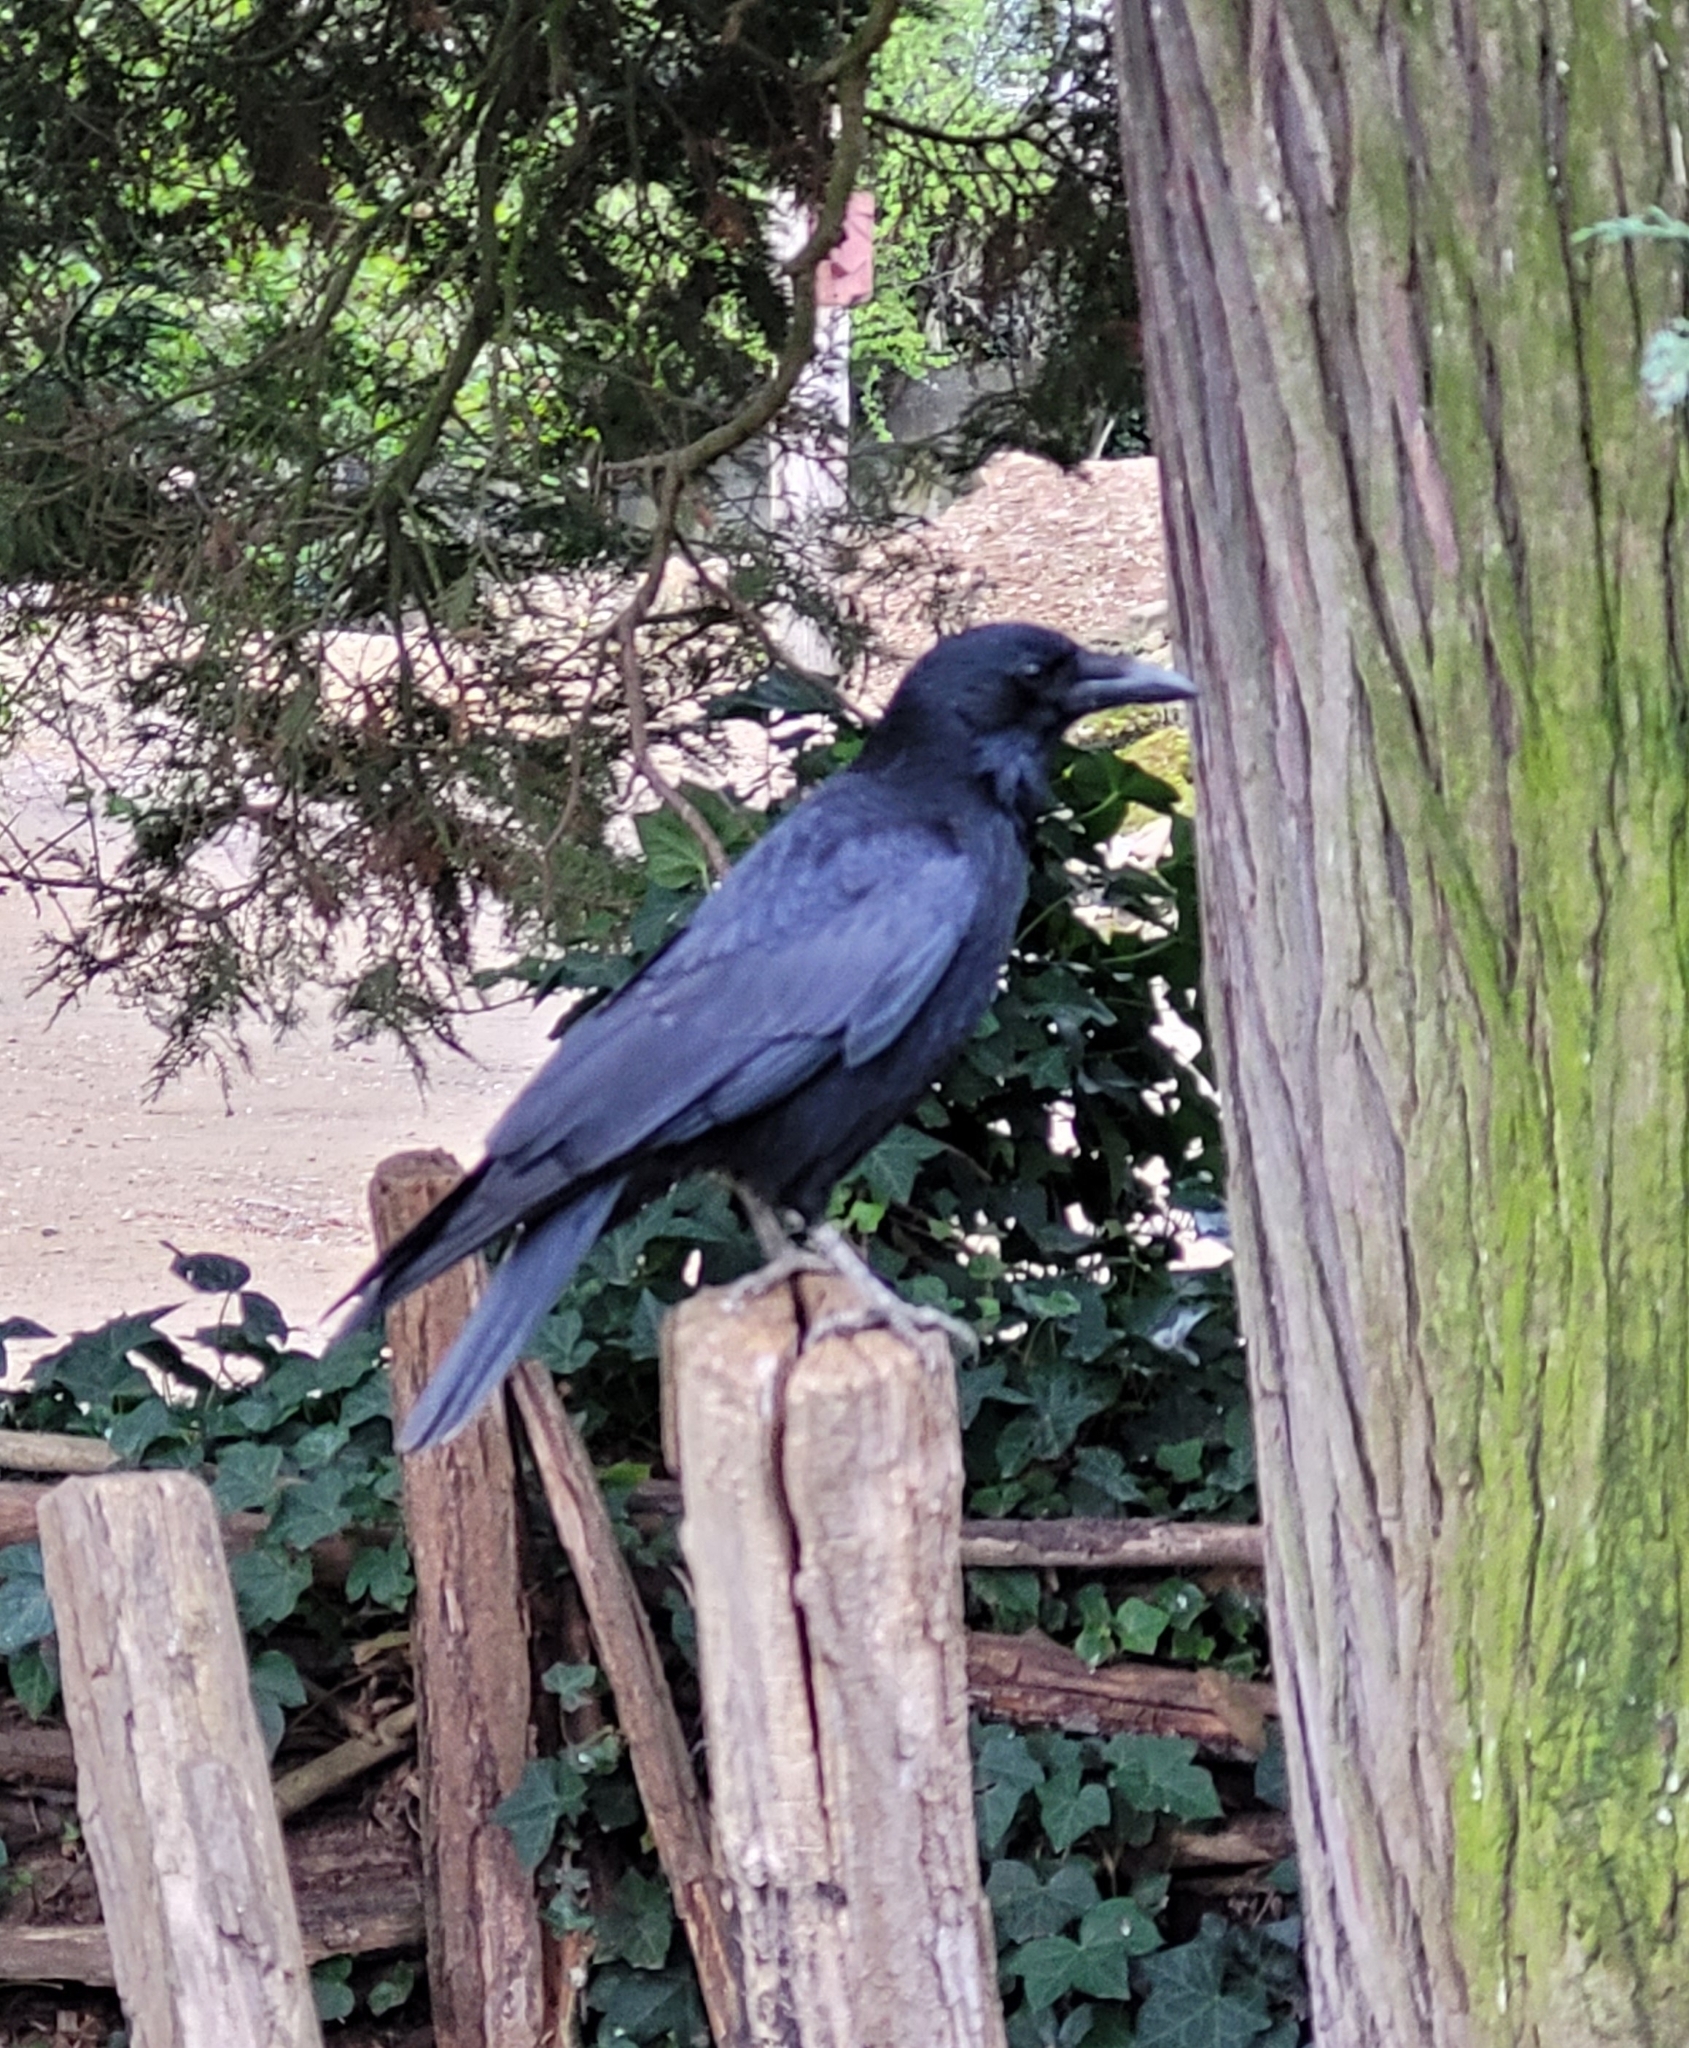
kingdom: Animalia
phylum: Chordata
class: Aves
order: Passeriformes
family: Corvidae
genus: Corvus
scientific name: Corvus corone
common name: Carrion crow
